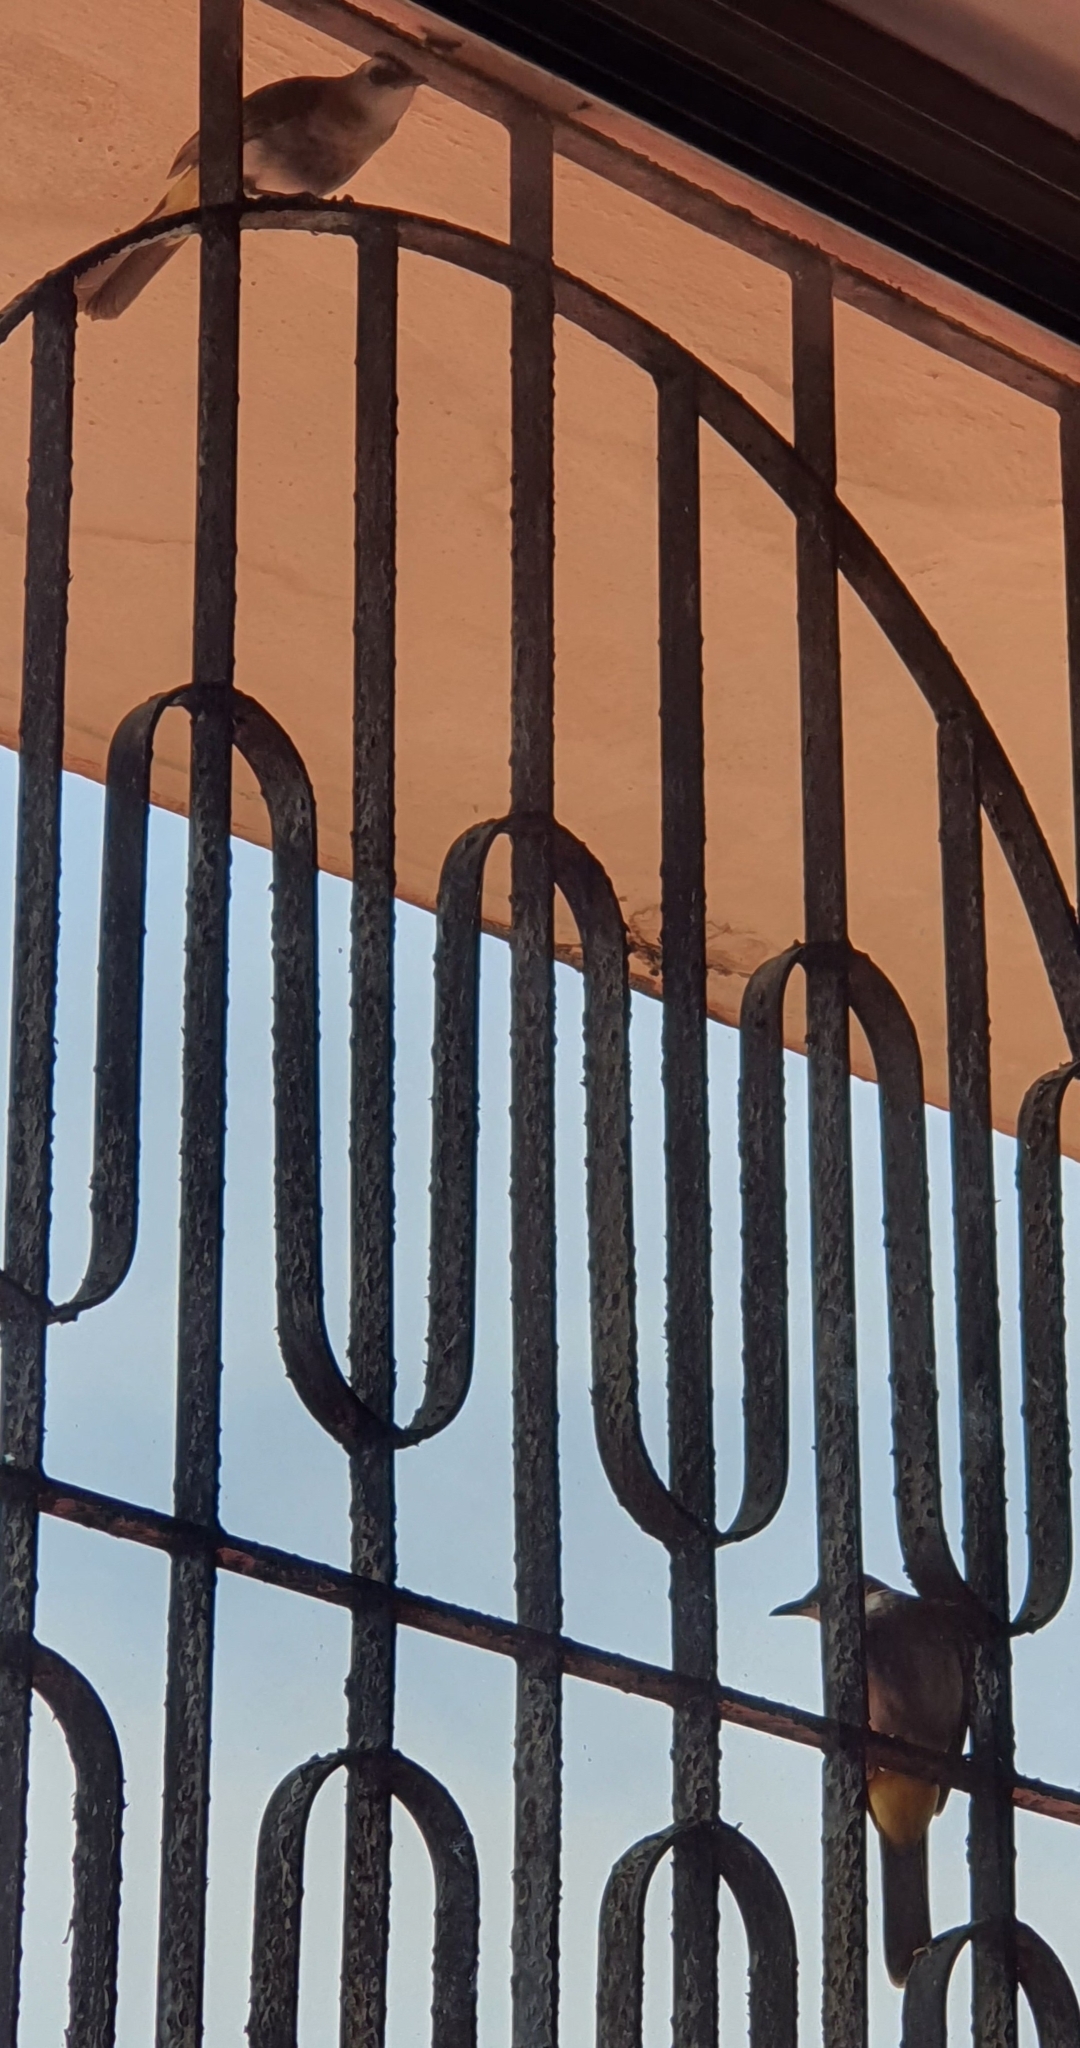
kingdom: Animalia
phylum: Chordata
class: Aves
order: Passeriformes
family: Pycnonotidae
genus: Pycnonotus
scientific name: Pycnonotus goiavier
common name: Yellow-vented bulbul
